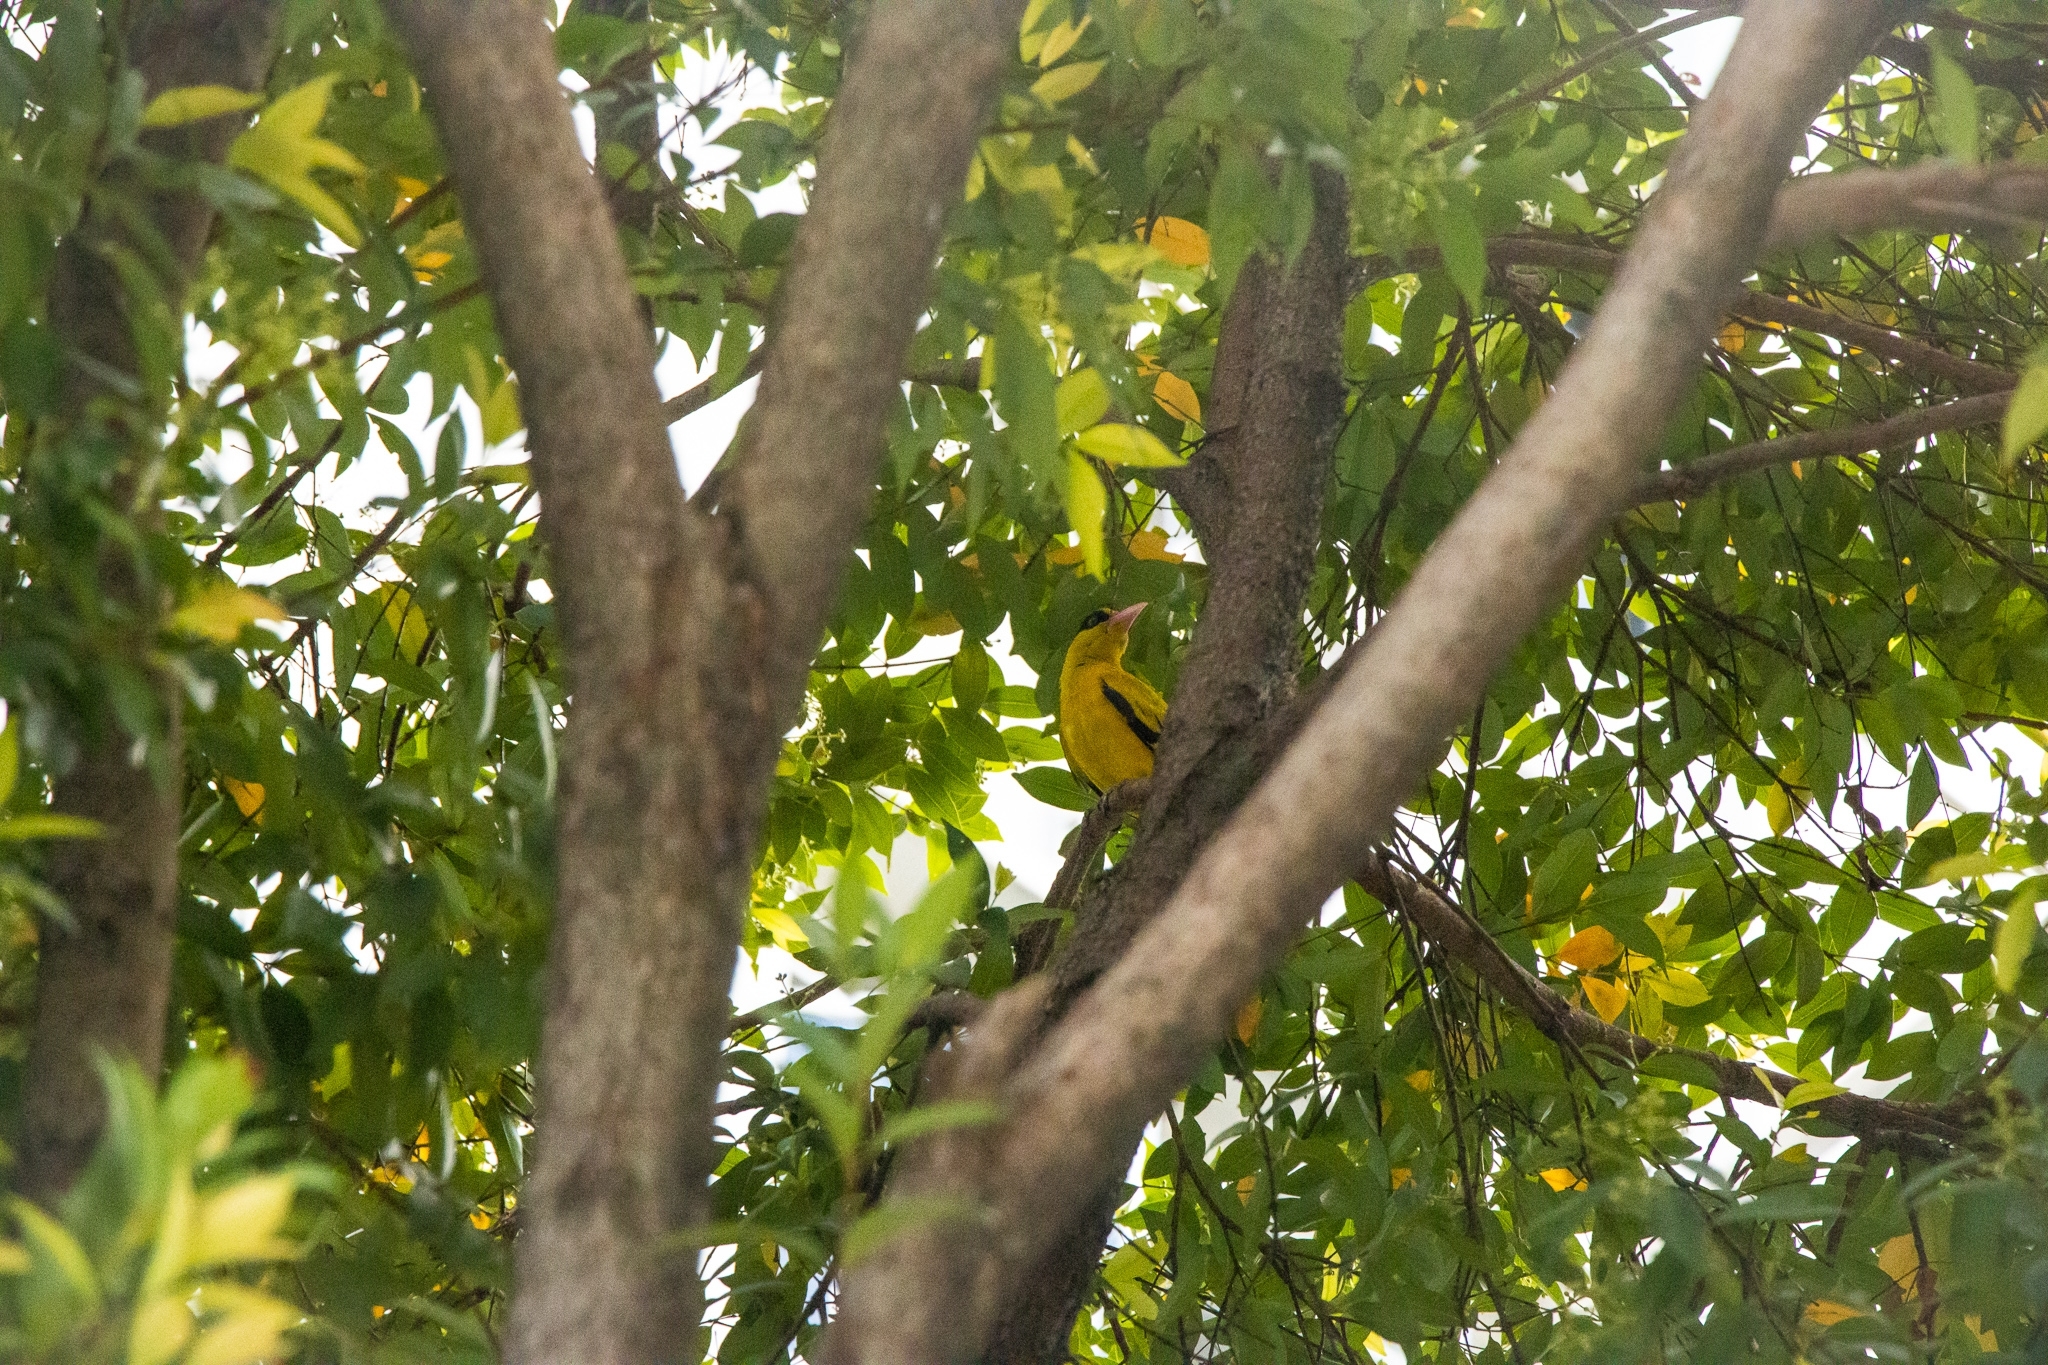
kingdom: Animalia
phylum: Chordata
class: Aves
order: Passeriformes
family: Oriolidae
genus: Oriolus
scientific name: Oriolus chinensis
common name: Black-naped oriole
